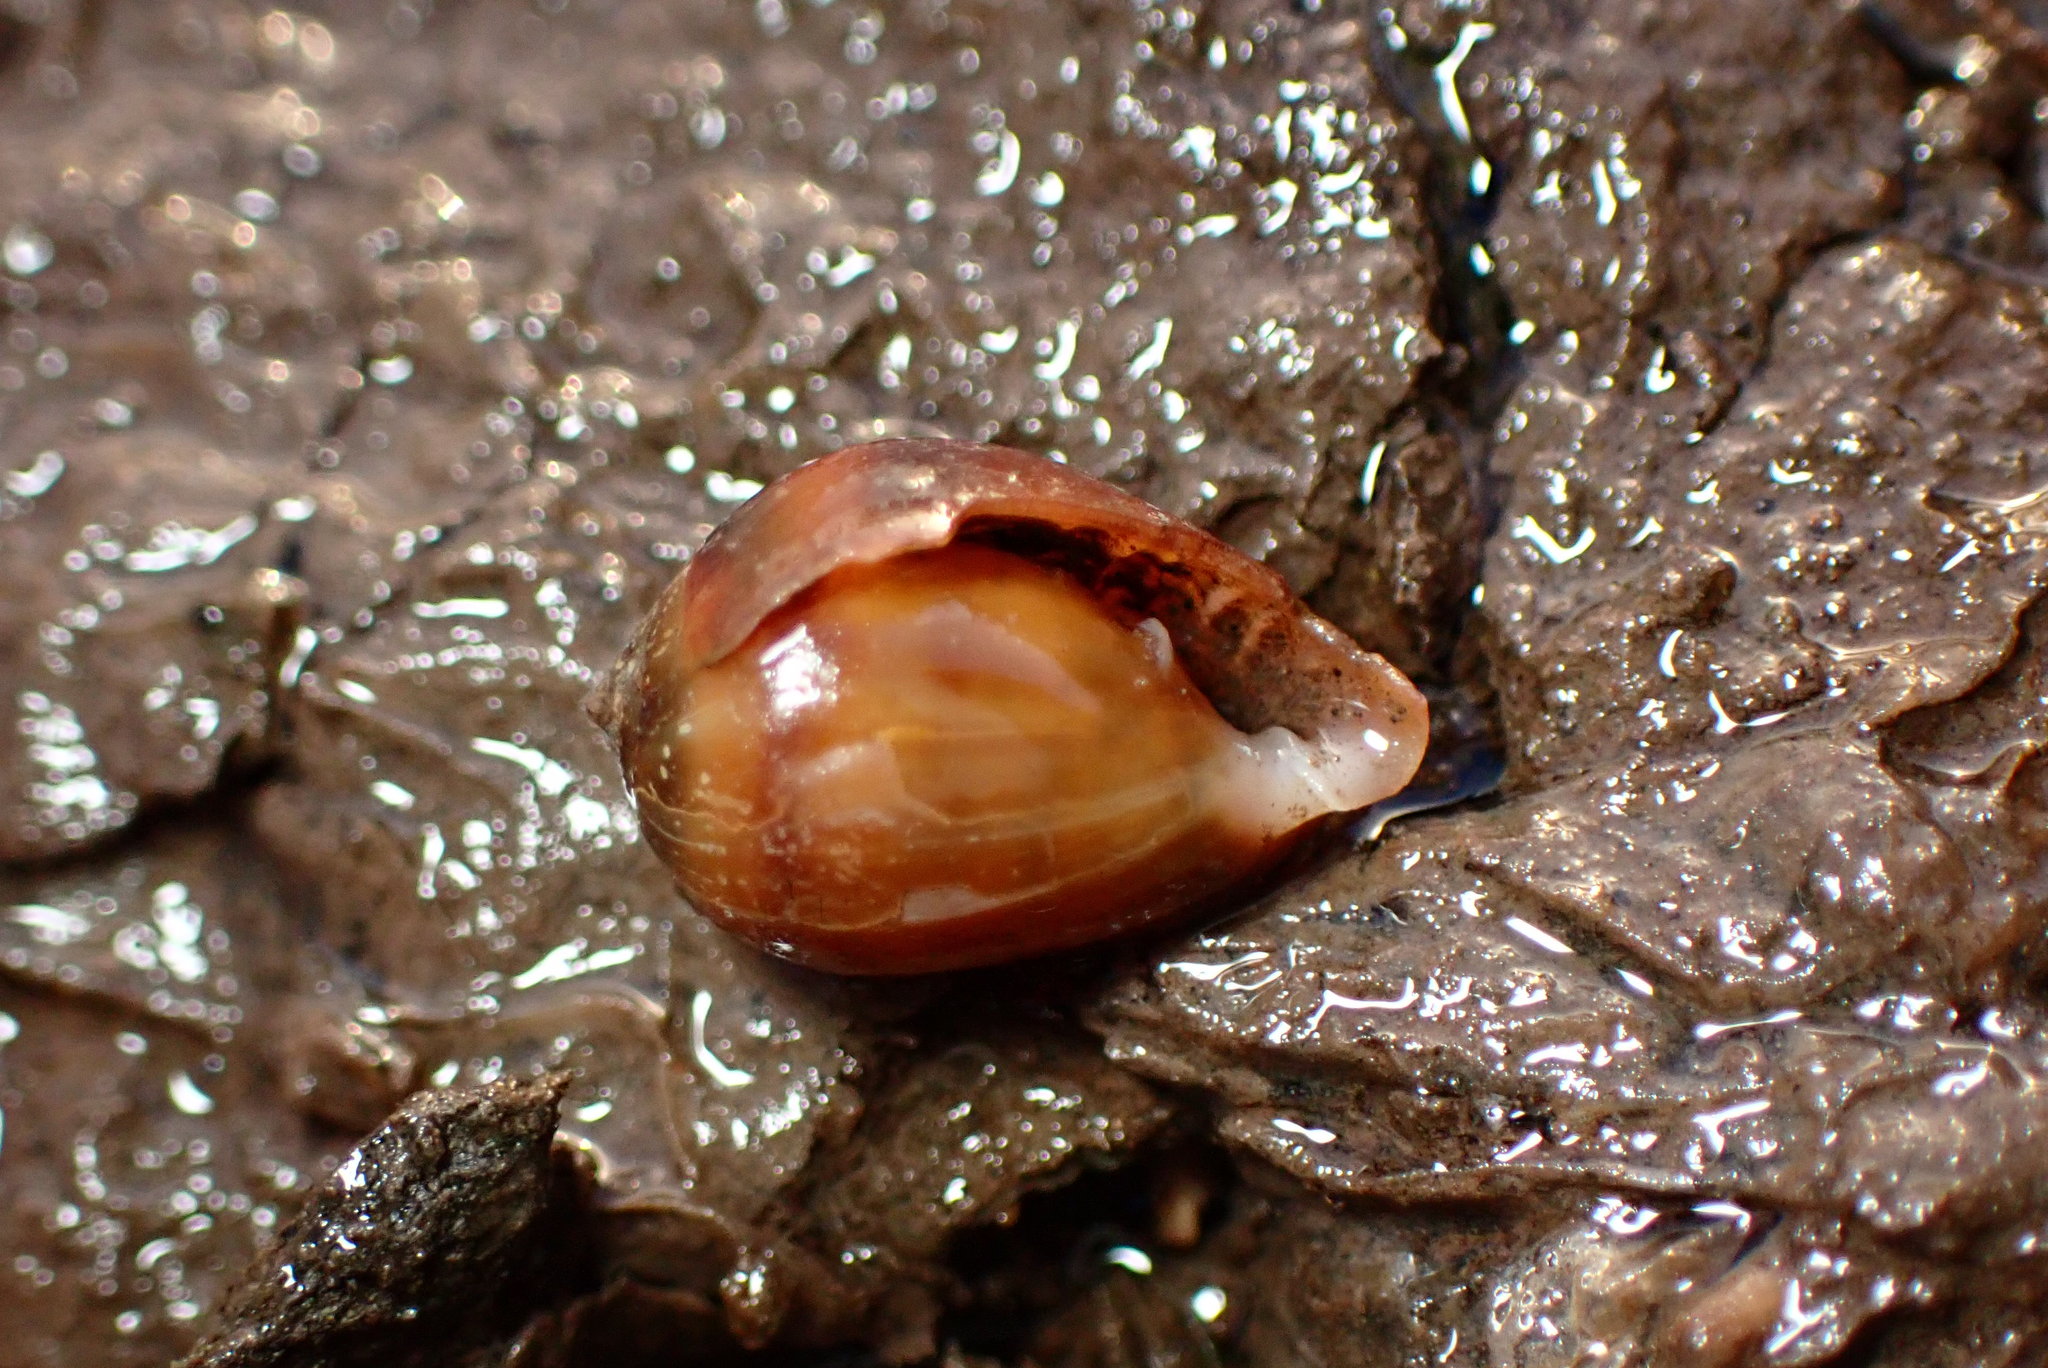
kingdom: Animalia
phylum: Mollusca
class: Gastropoda
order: Ellobiida
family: Ellobiidae
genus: Melampus
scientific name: Melampus olivaceus
